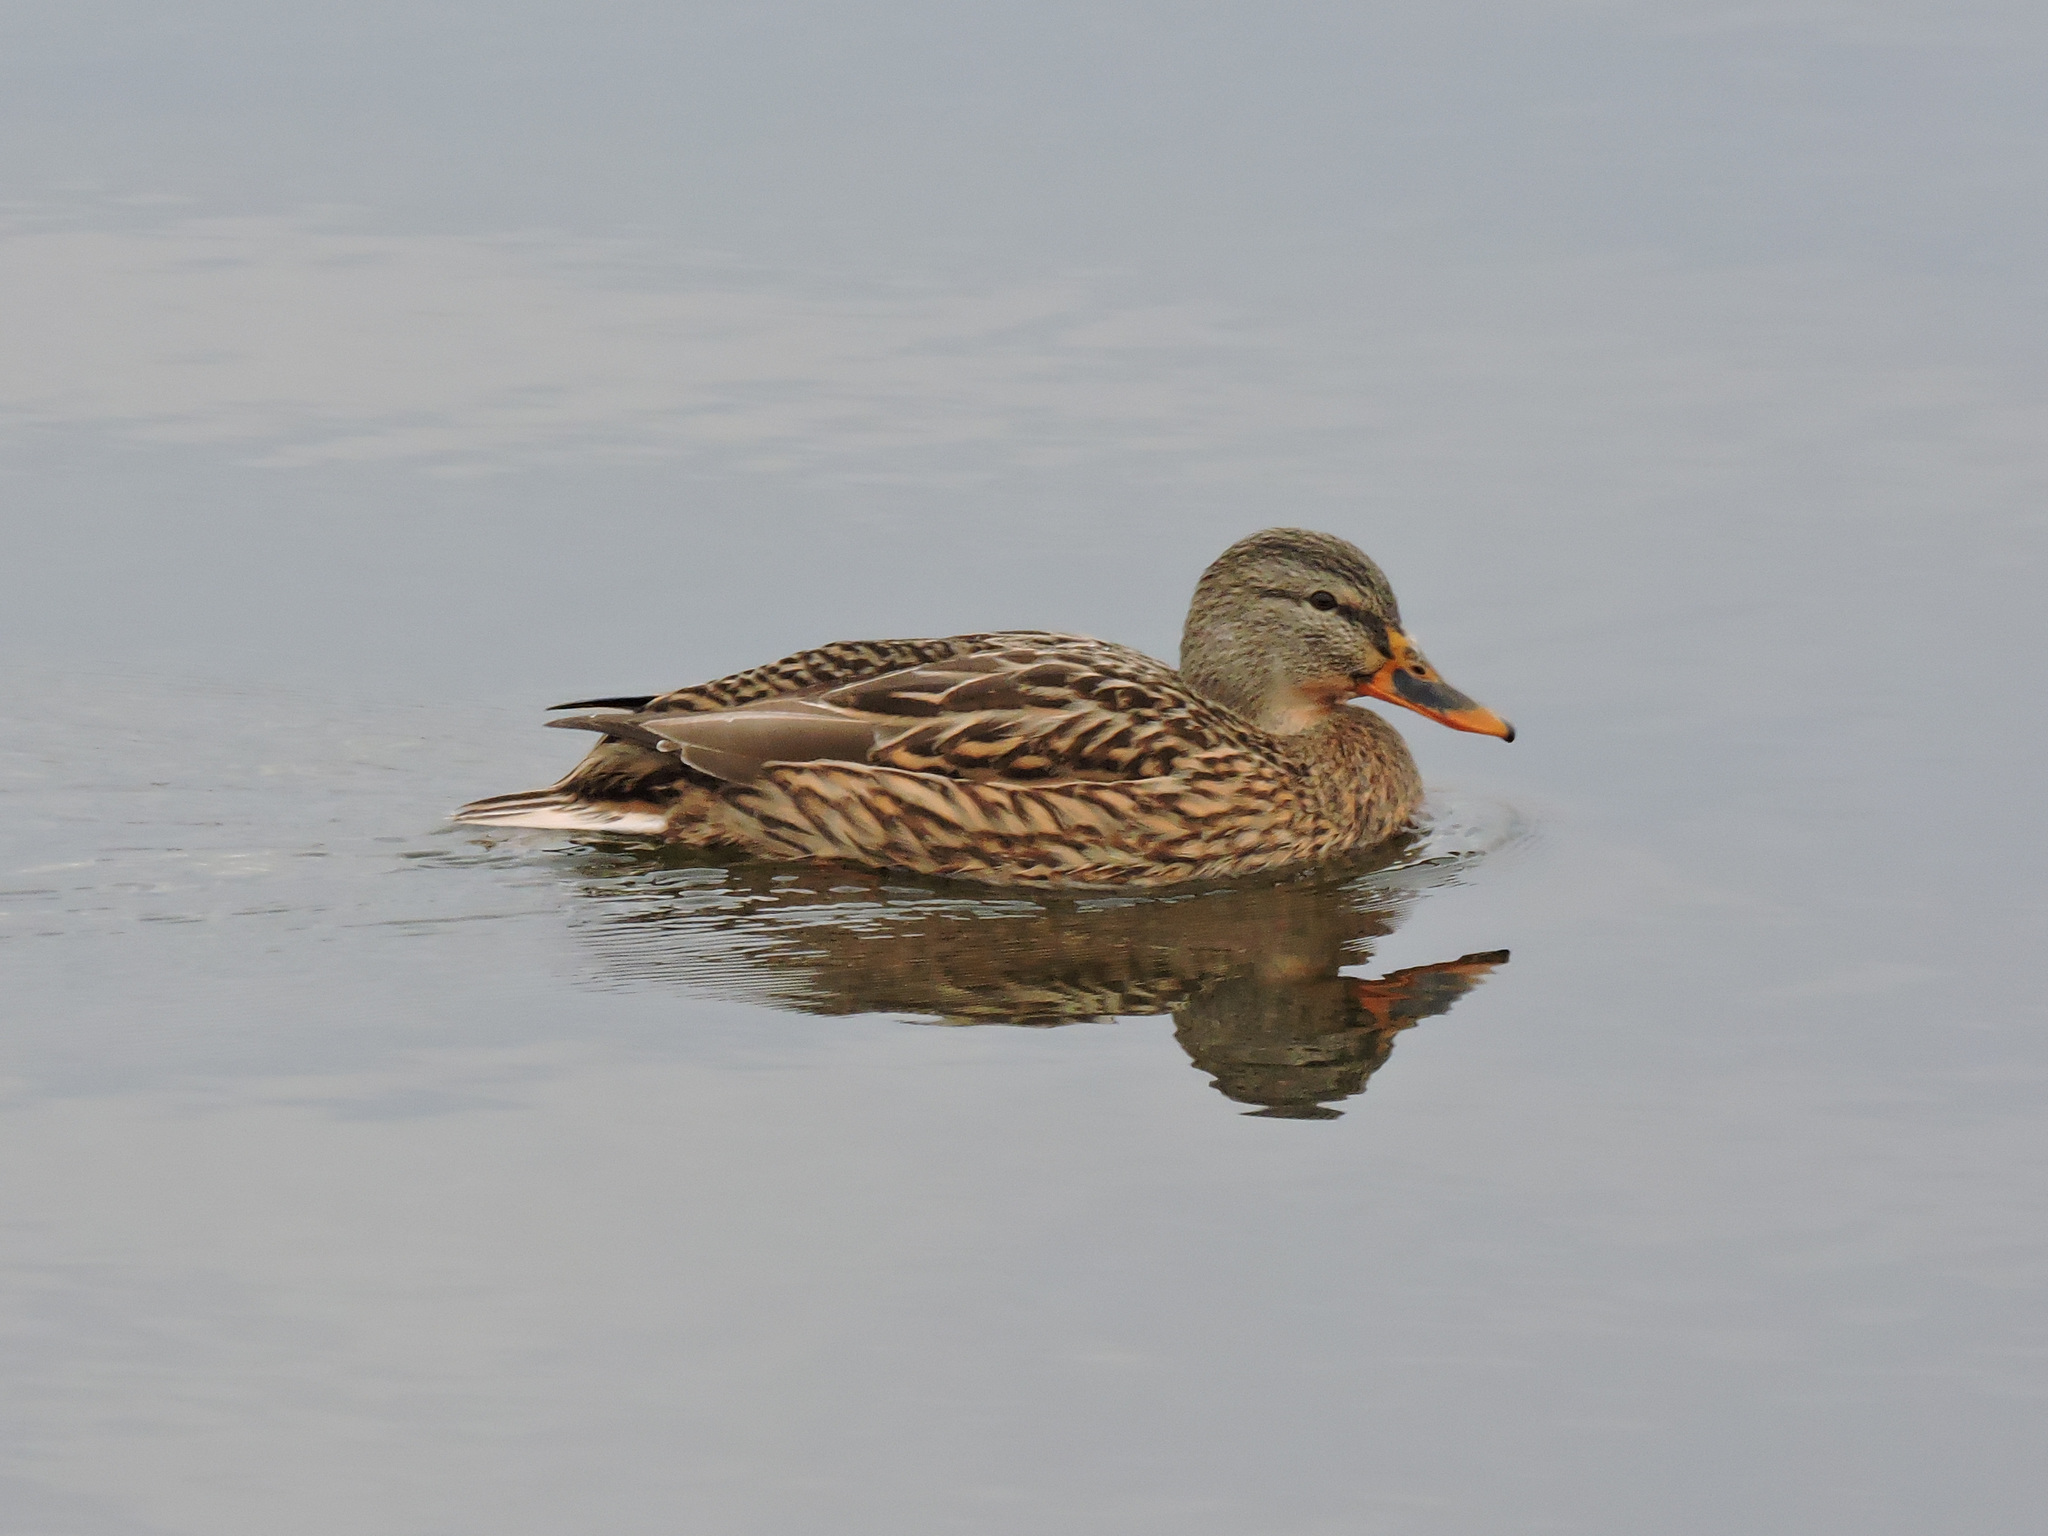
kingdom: Animalia
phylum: Chordata
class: Aves
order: Anseriformes
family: Anatidae
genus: Anas
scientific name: Anas platyrhynchos
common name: Mallard
